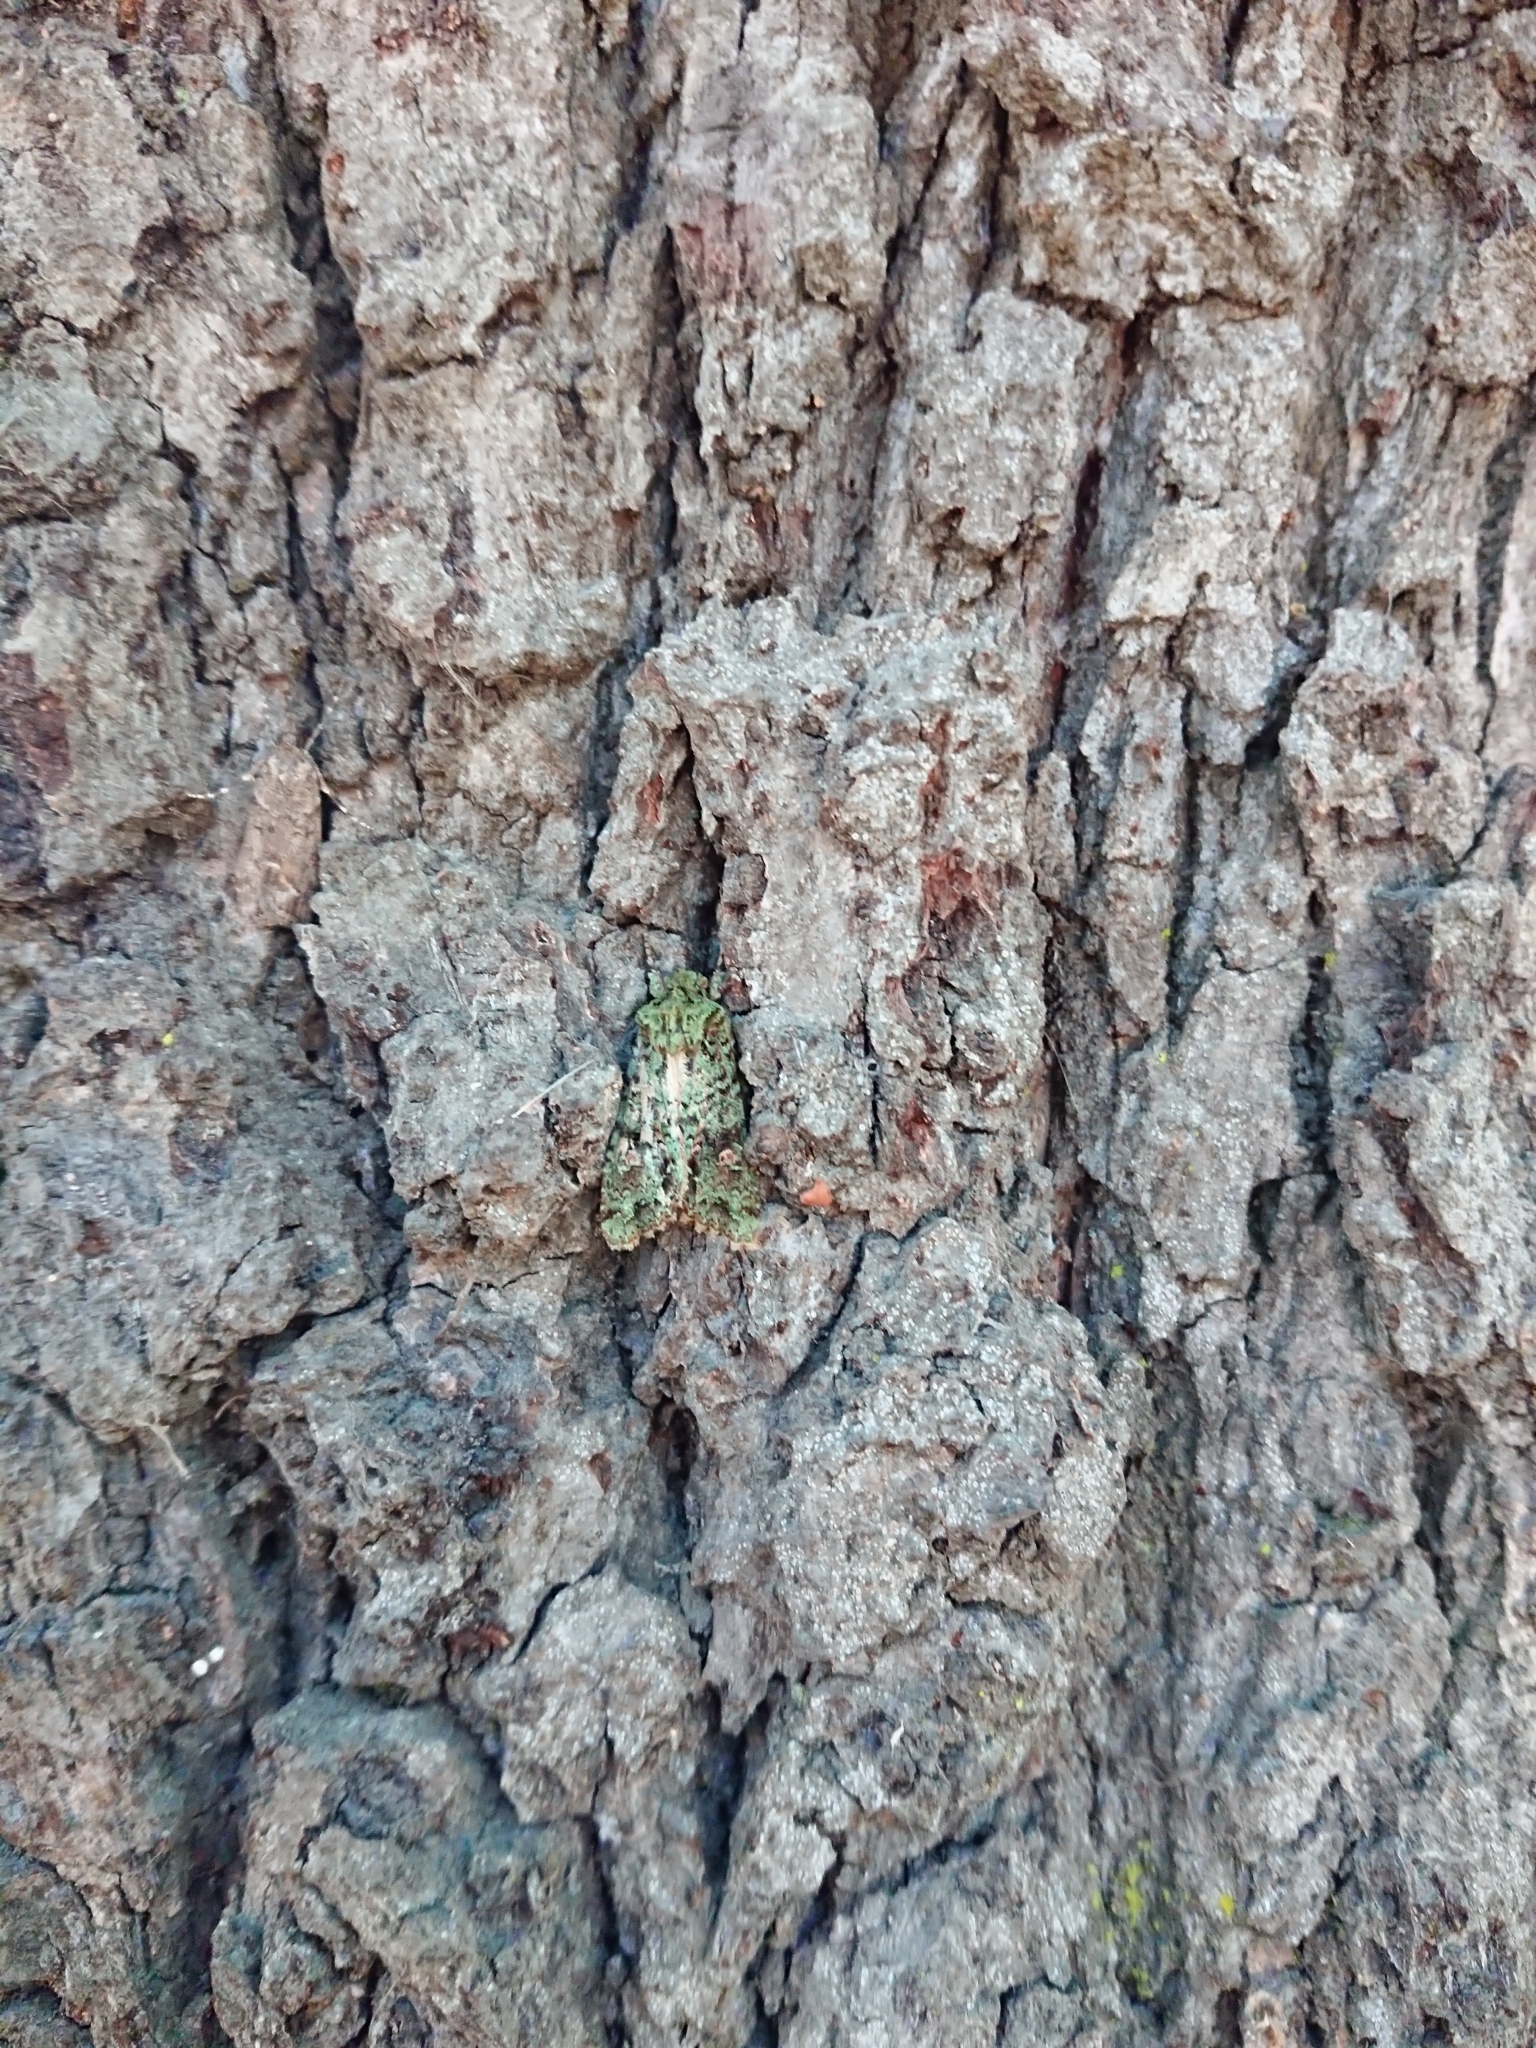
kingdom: Animalia
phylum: Arthropoda
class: Insecta
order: Lepidoptera
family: Noctuidae
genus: Ichneutica
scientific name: Ichneutica
